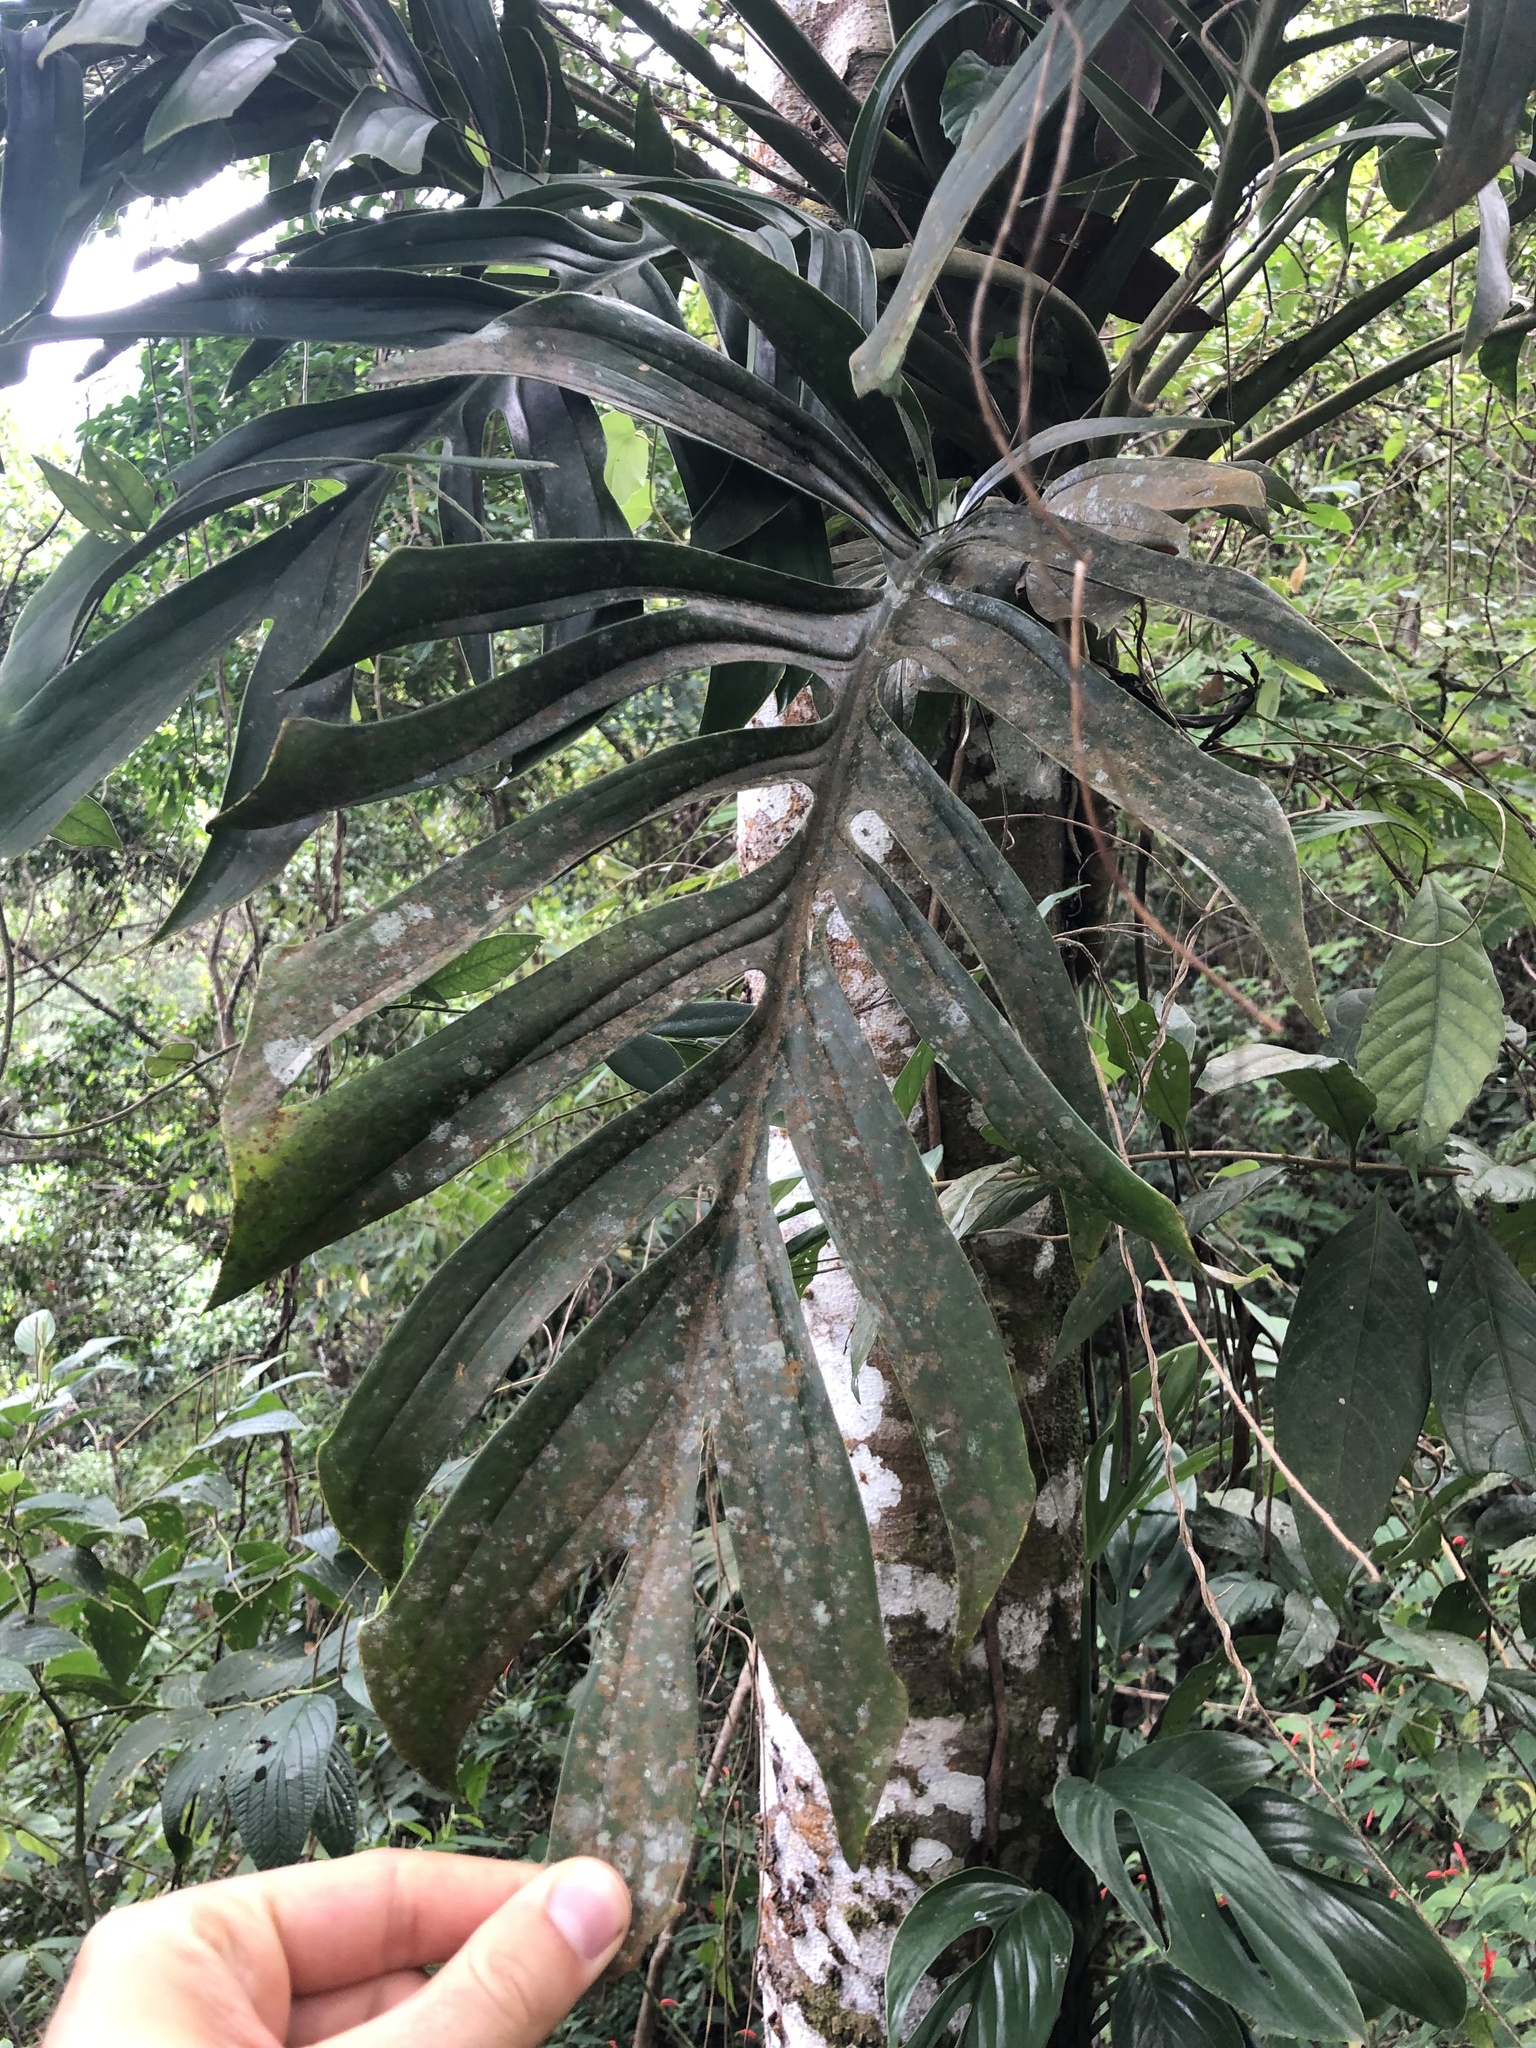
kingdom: Plantae
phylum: Tracheophyta
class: Liliopsida
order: Alismatales
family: Araceae
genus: Monstera
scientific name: Monstera pinnatipartita
